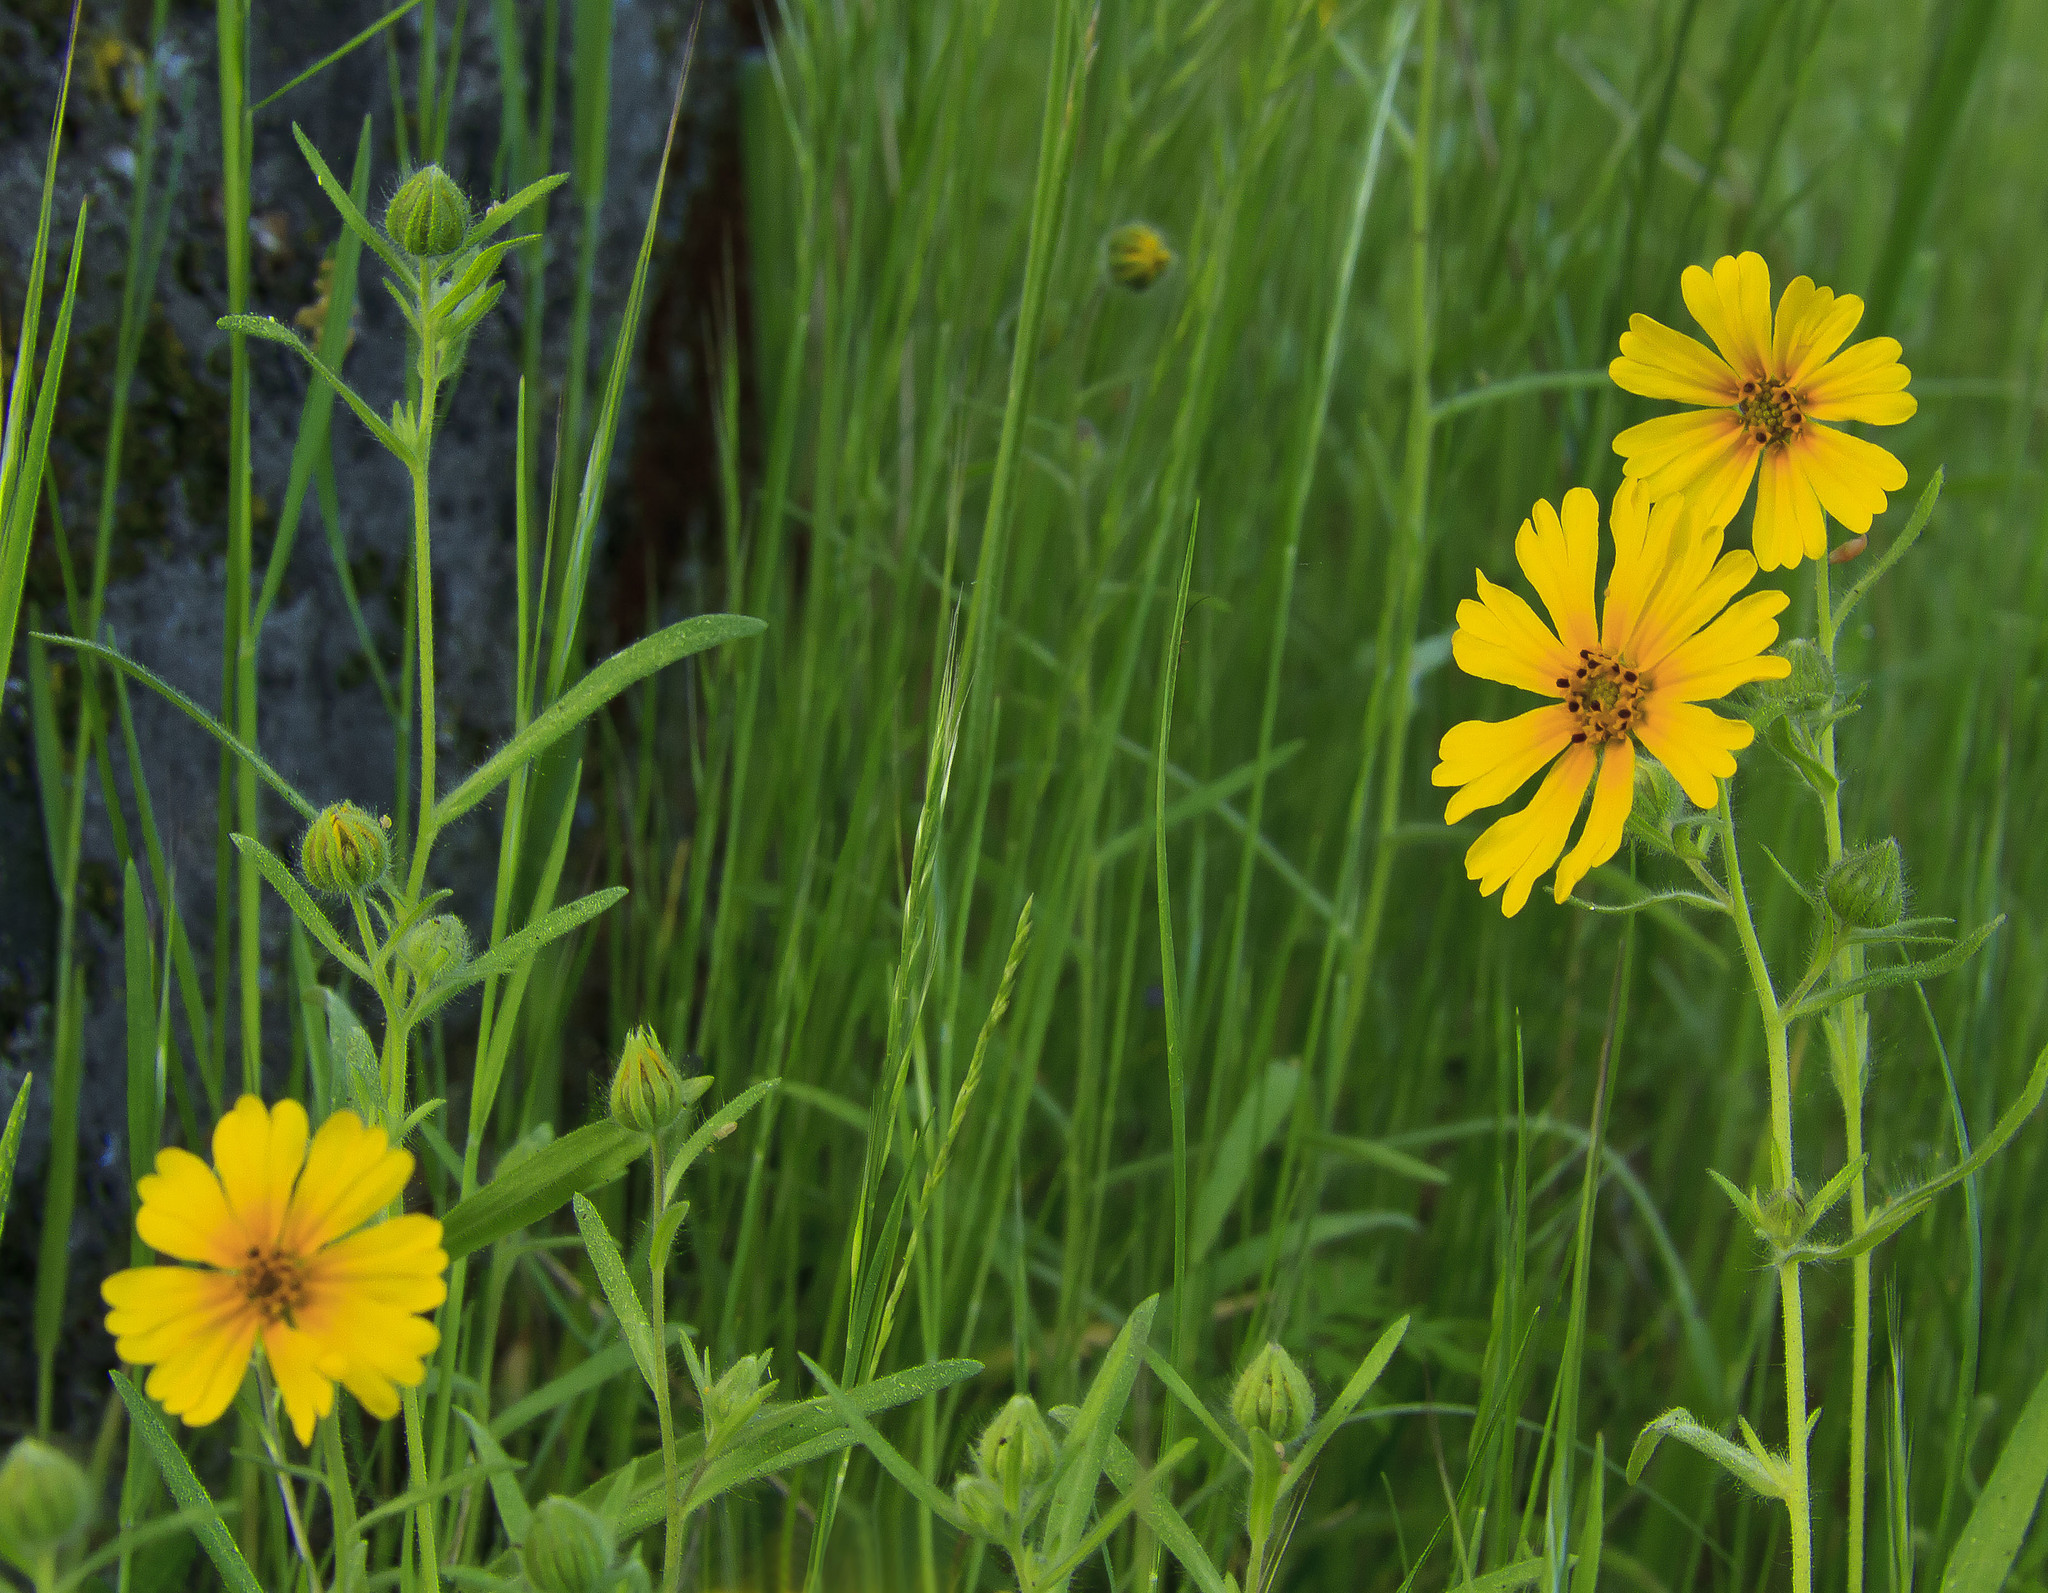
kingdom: Plantae
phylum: Tracheophyta
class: Magnoliopsida
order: Asterales
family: Asteraceae
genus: Madia
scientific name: Madia elegans
